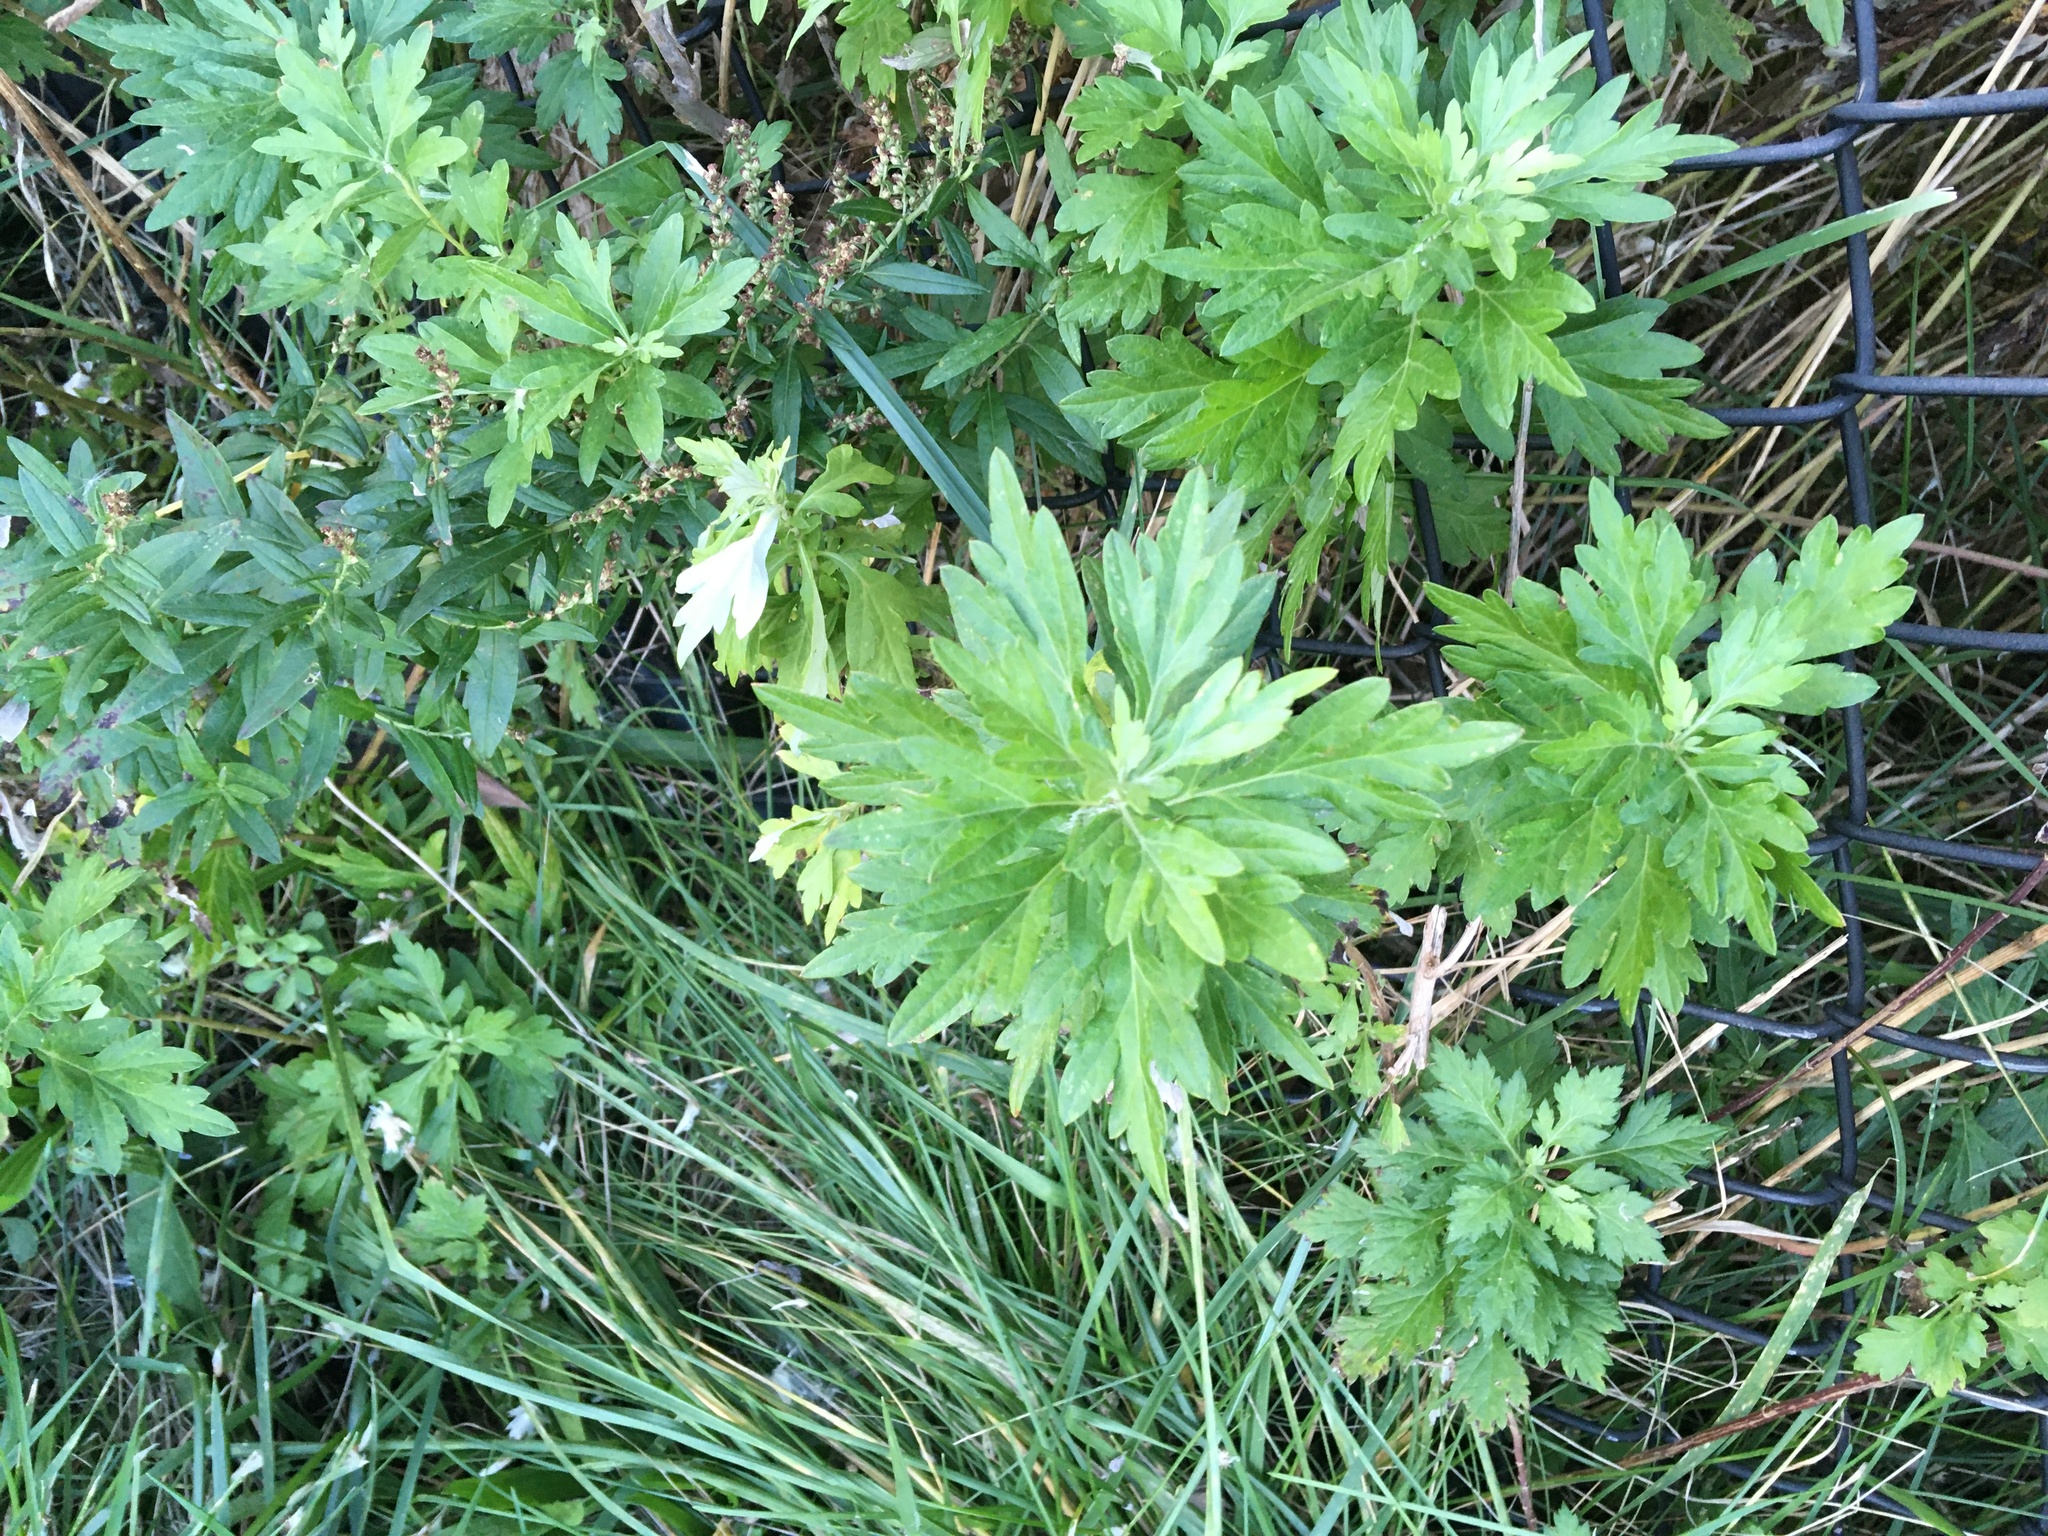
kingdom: Plantae
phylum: Tracheophyta
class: Magnoliopsida
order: Asterales
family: Asteraceae
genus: Artemisia
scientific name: Artemisia vulgaris
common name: Mugwort
